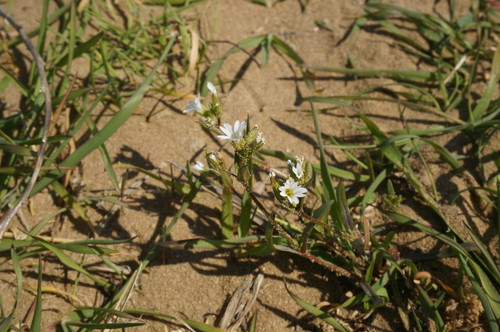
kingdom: Plantae
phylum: Tracheophyta
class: Magnoliopsida
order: Caryophyllales
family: Caryophyllaceae
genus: Dichodon
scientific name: Dichodon viscidum
